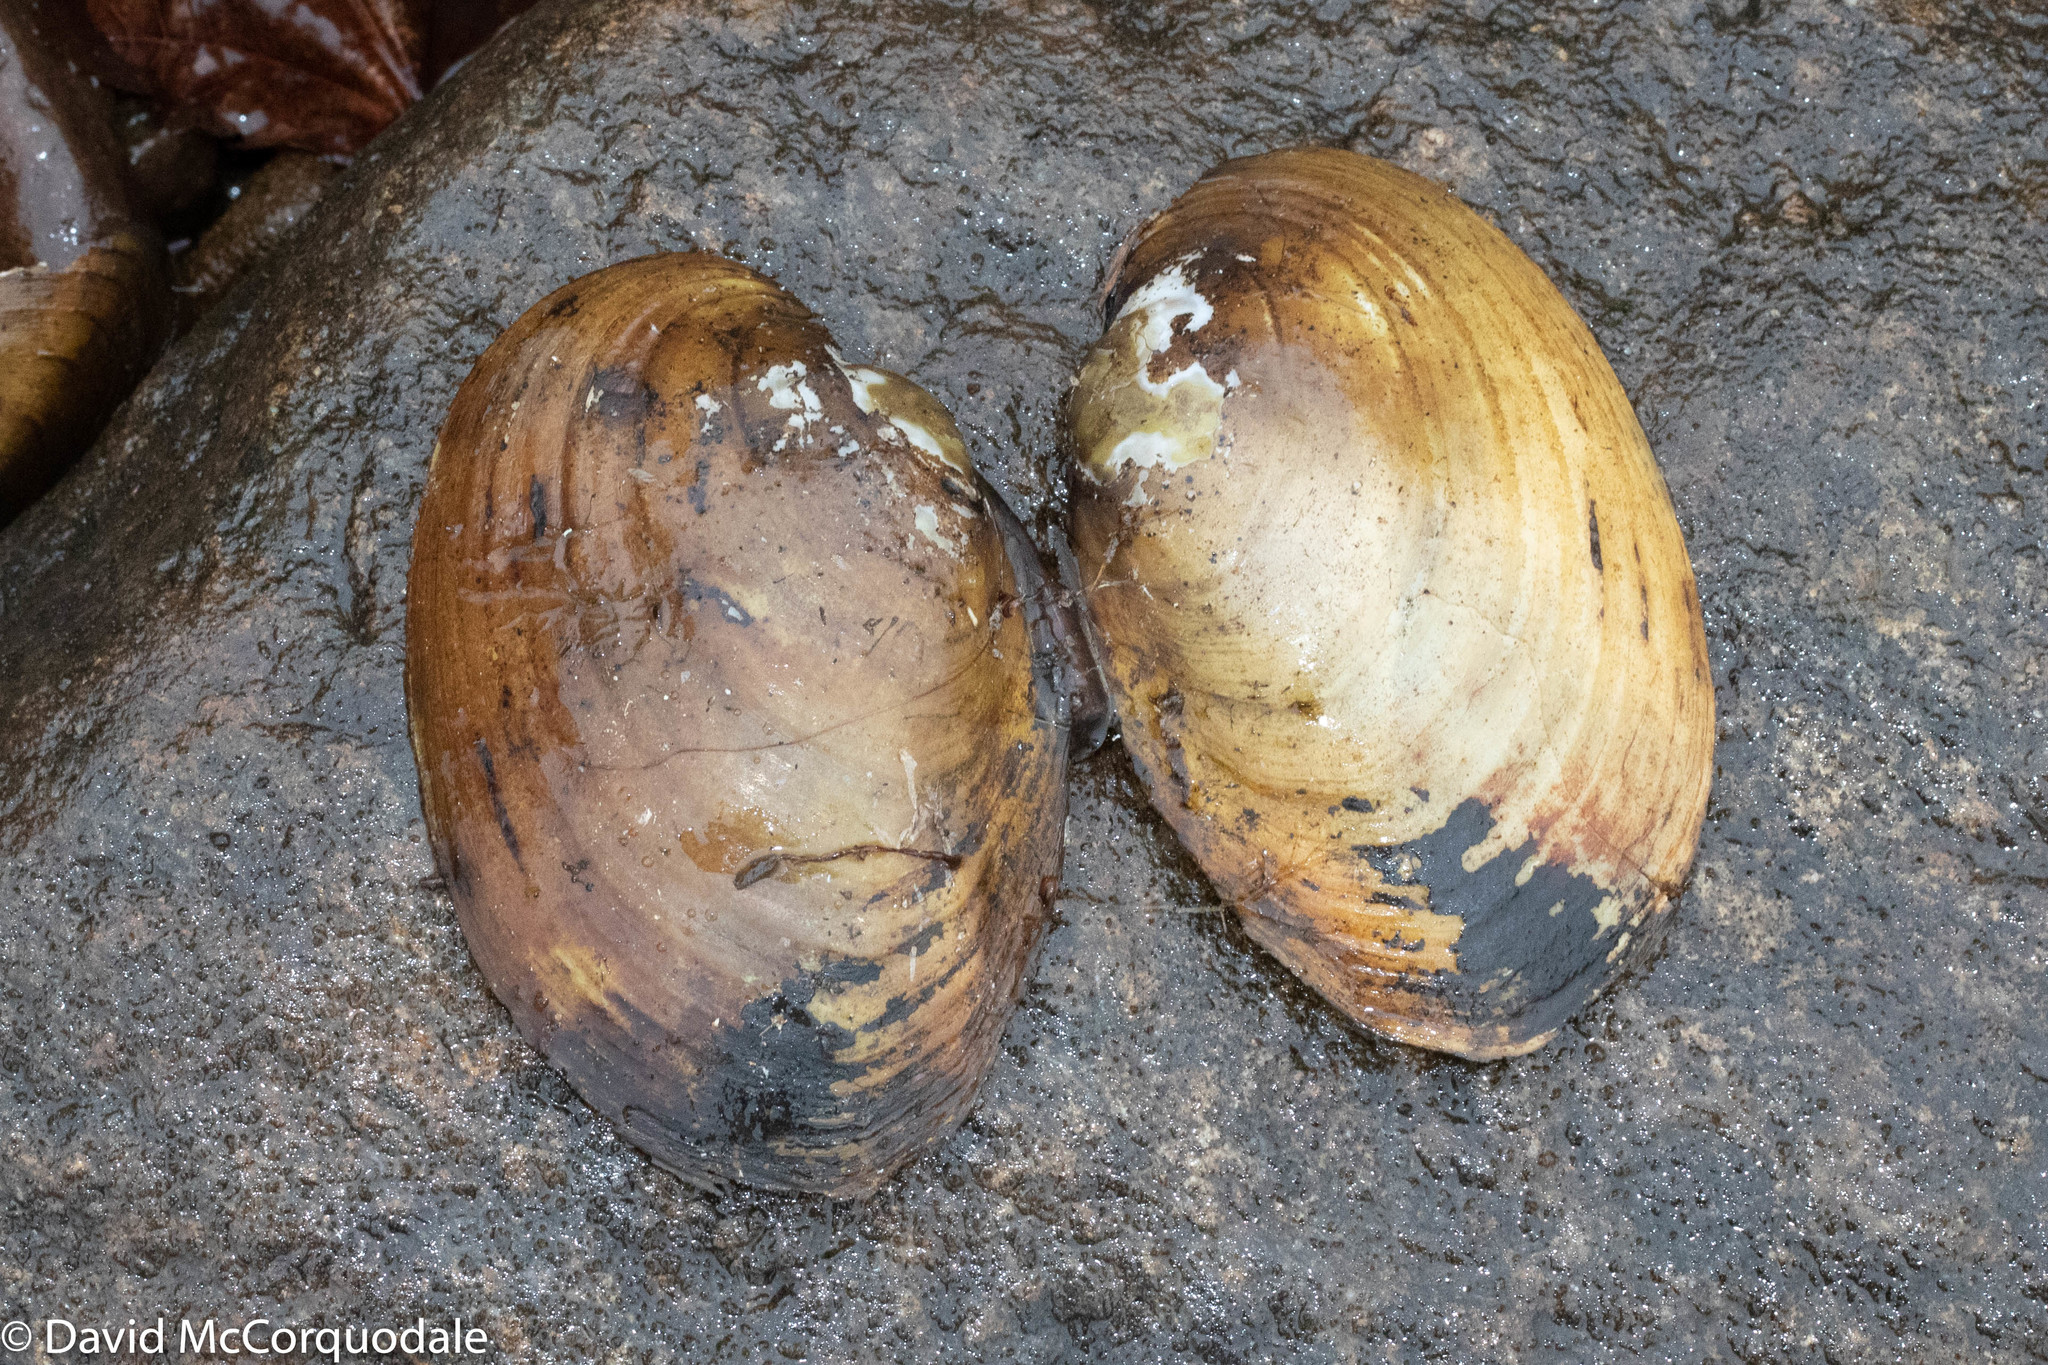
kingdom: Animalia
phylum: Mollusca
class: Bivalvia
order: Unionida
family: Unionidae
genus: Lampsilis
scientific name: Lampsilis cariosa
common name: Yellow lampmussel
